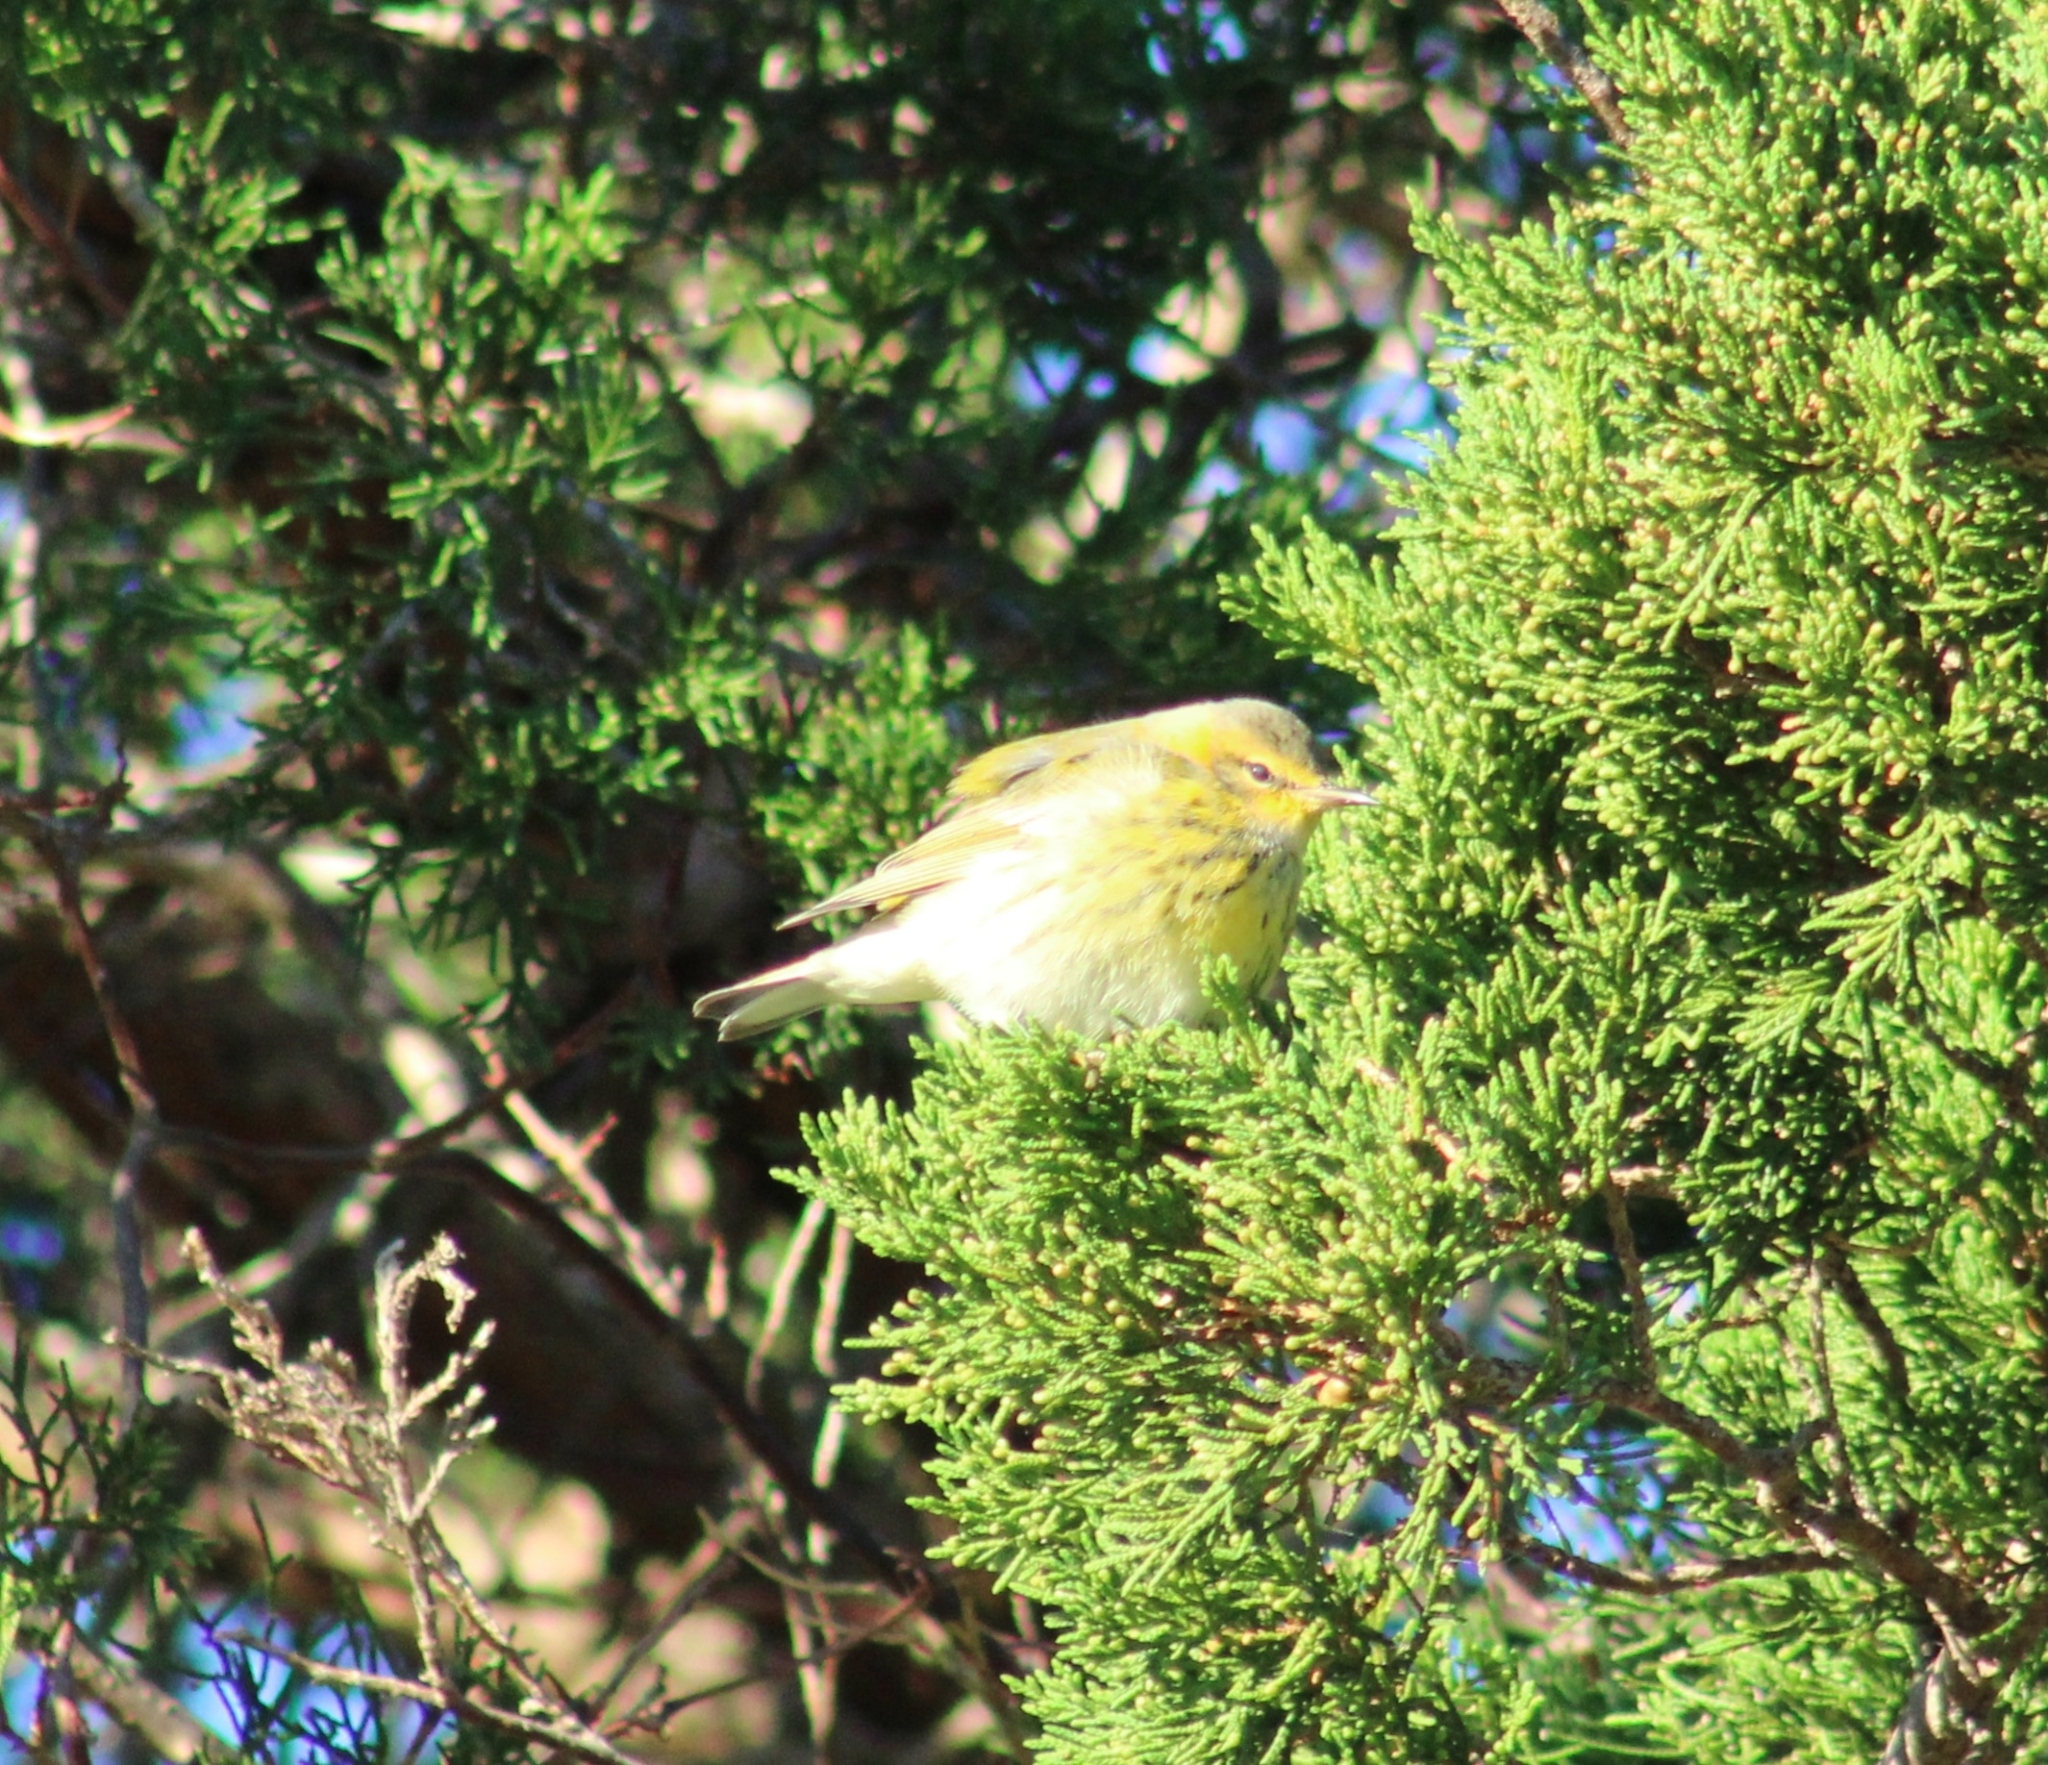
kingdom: Animalia
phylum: Chordata
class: Aves
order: Passeriformes
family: Parulidae
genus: Setophaga
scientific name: Setophaga tigrina
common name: Cape may warbler
